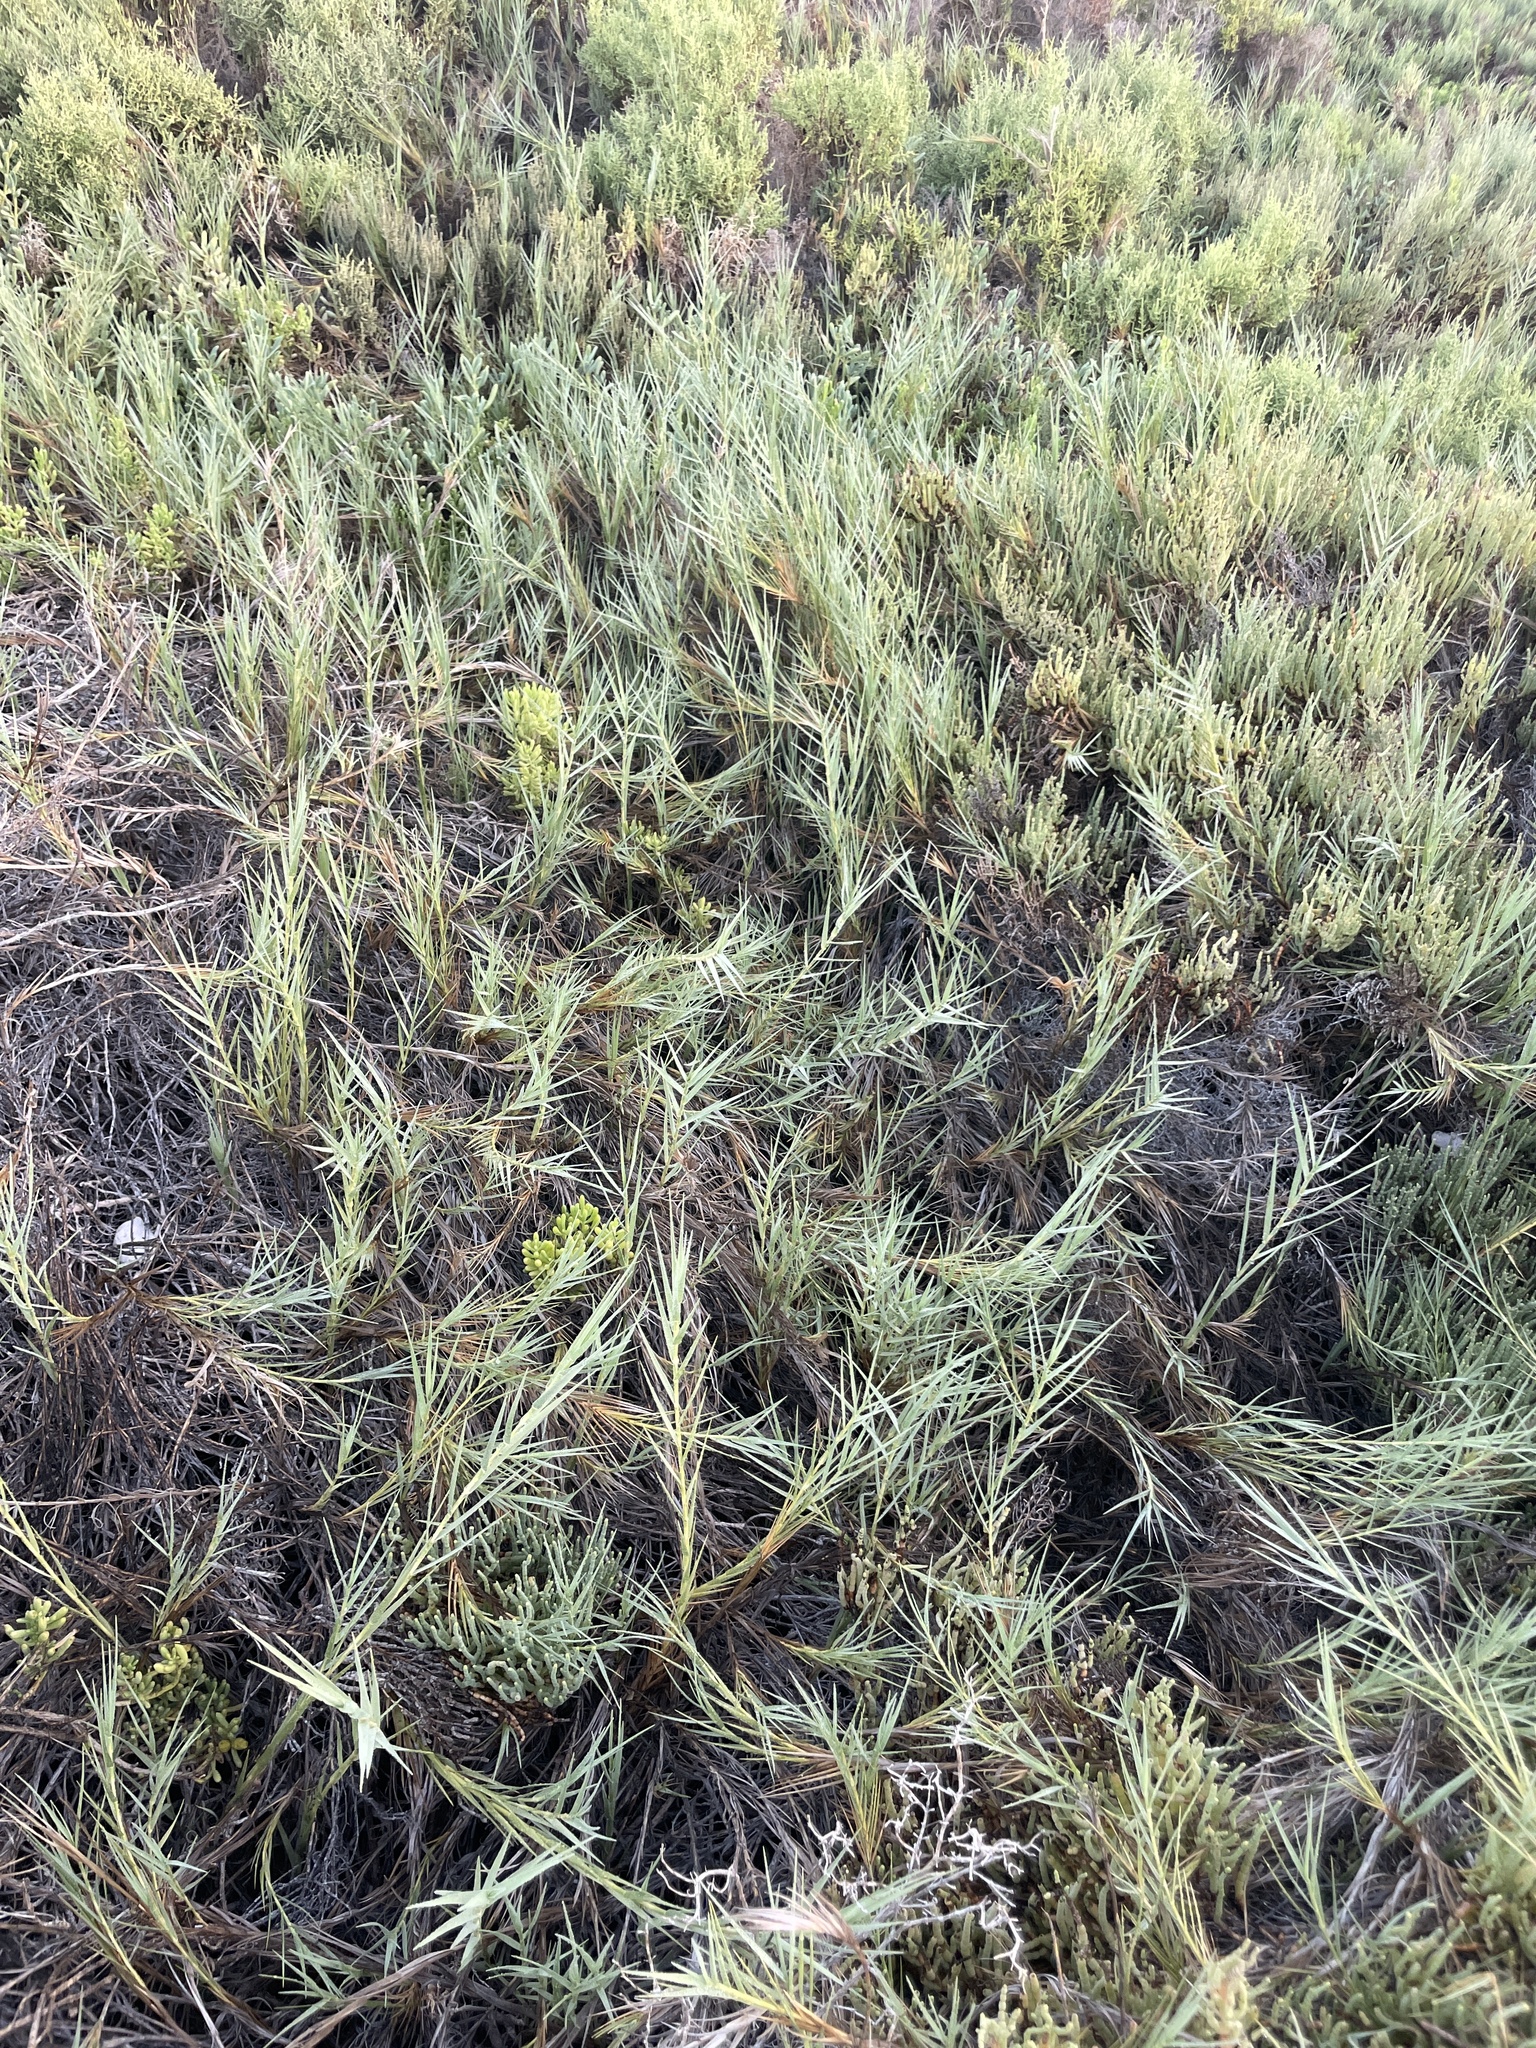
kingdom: Plantae
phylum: Tracheophyta
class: Liliopsida
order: Poales
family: Poaceae
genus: Distichlis
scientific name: Distichlis spicata
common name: Saltgrass
